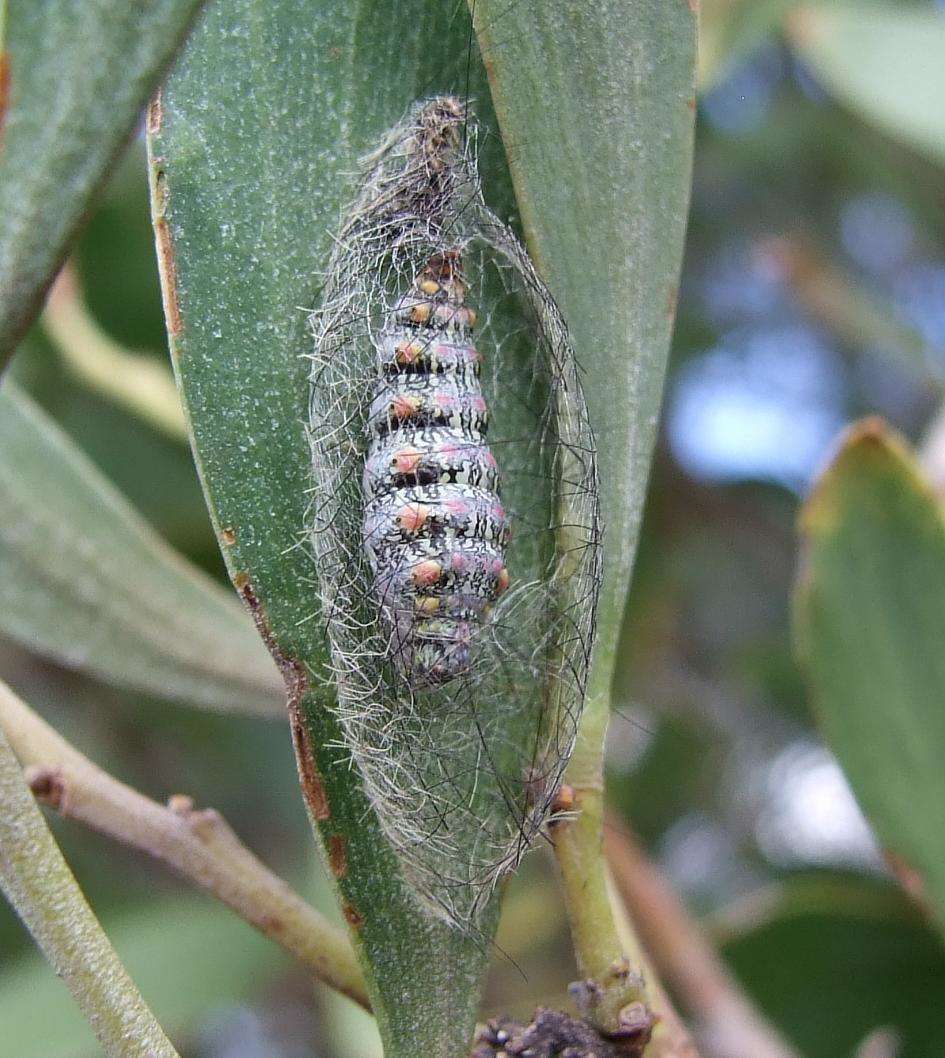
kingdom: Animalia
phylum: Arthropoda
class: Insecta
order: Lepidoptera
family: Erebidae
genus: Anestia
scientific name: Anestia
